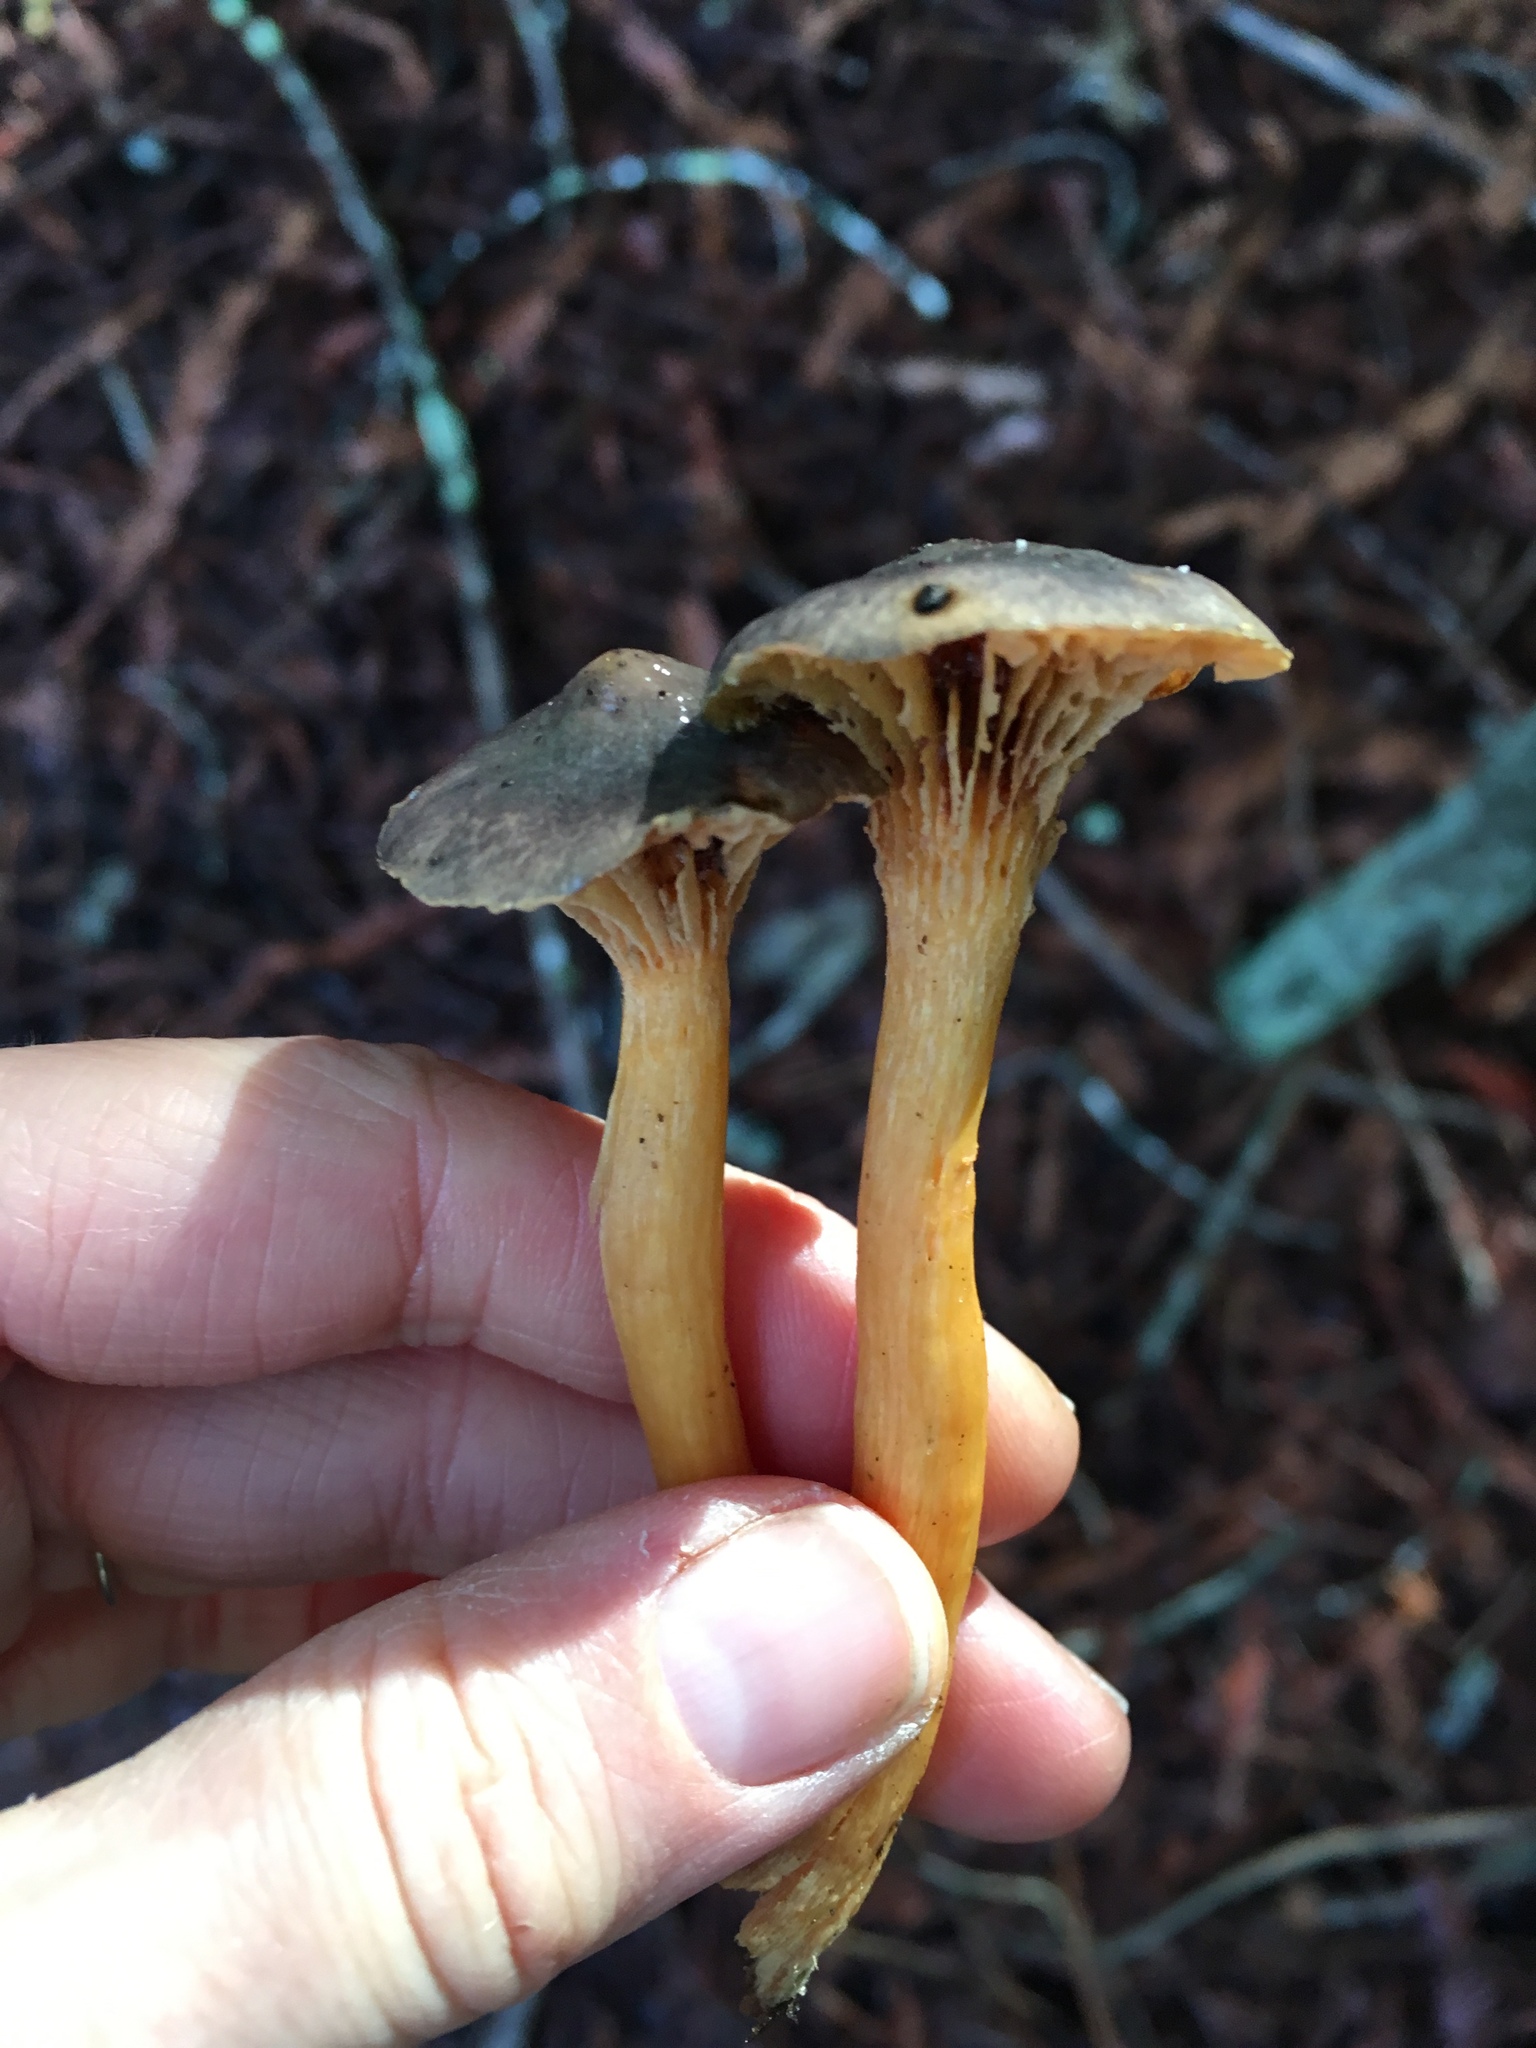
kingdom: Fungi
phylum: Basidiomycota
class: Agaricomycetes
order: Boletales
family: Gomphidiaceae
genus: Chroogomphus
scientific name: Chroogomphus ochraceus
